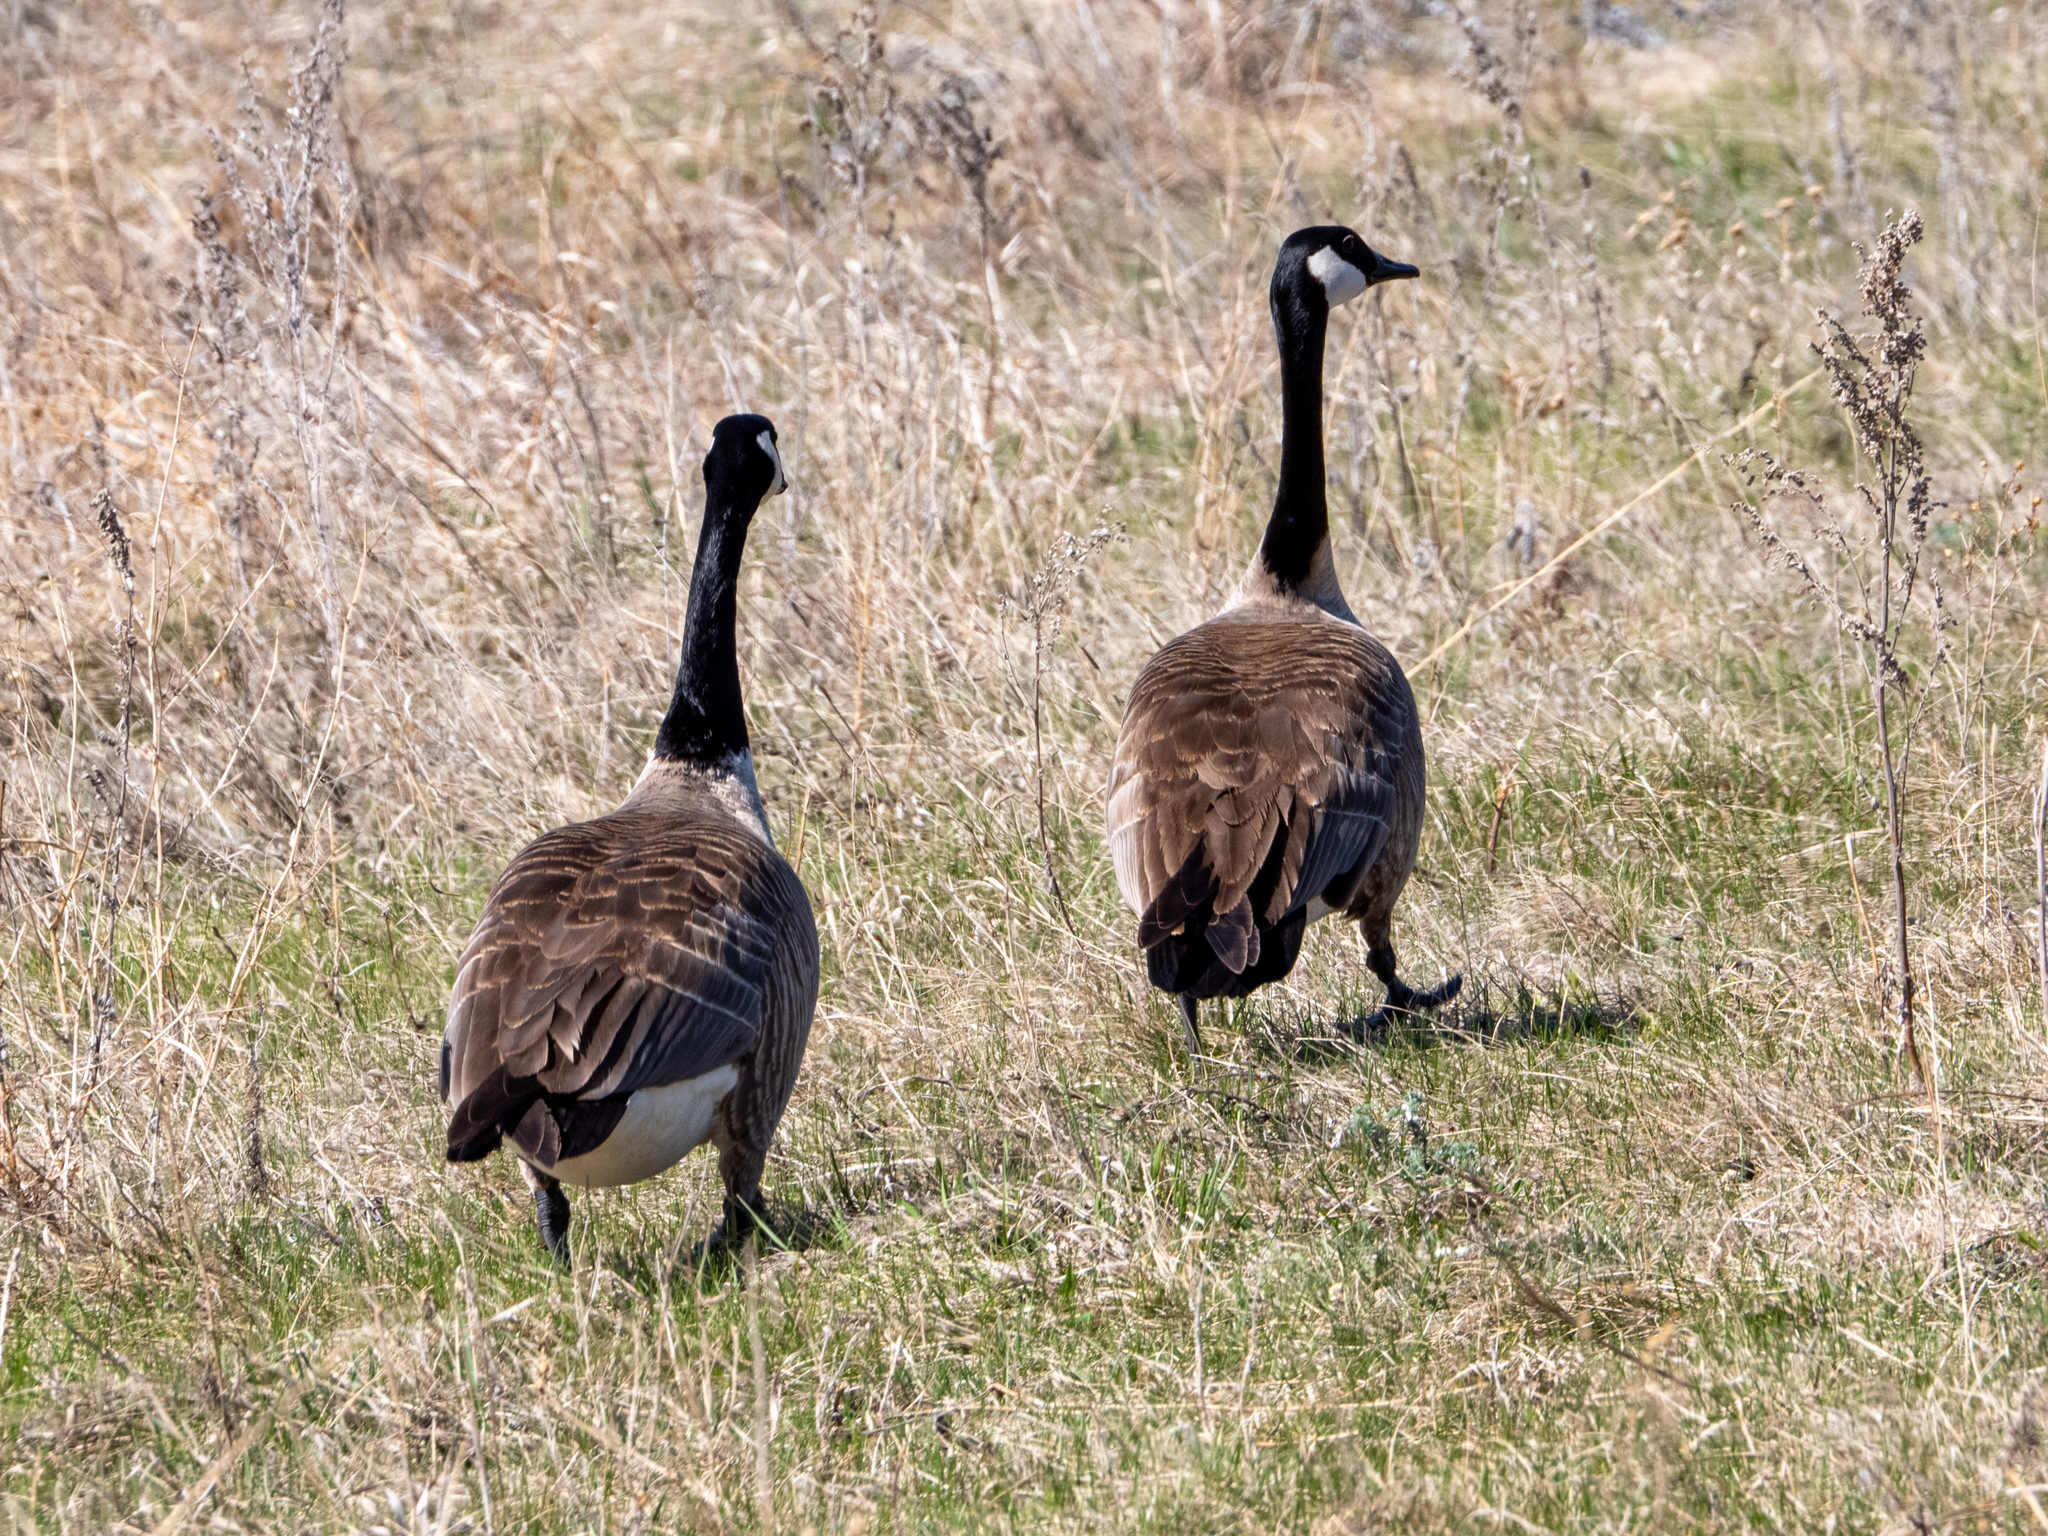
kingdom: Animalia
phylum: Chordata
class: Aves
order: Anseriformes
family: Anatidae
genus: Branta
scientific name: Branta canadensis
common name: Canada goose
